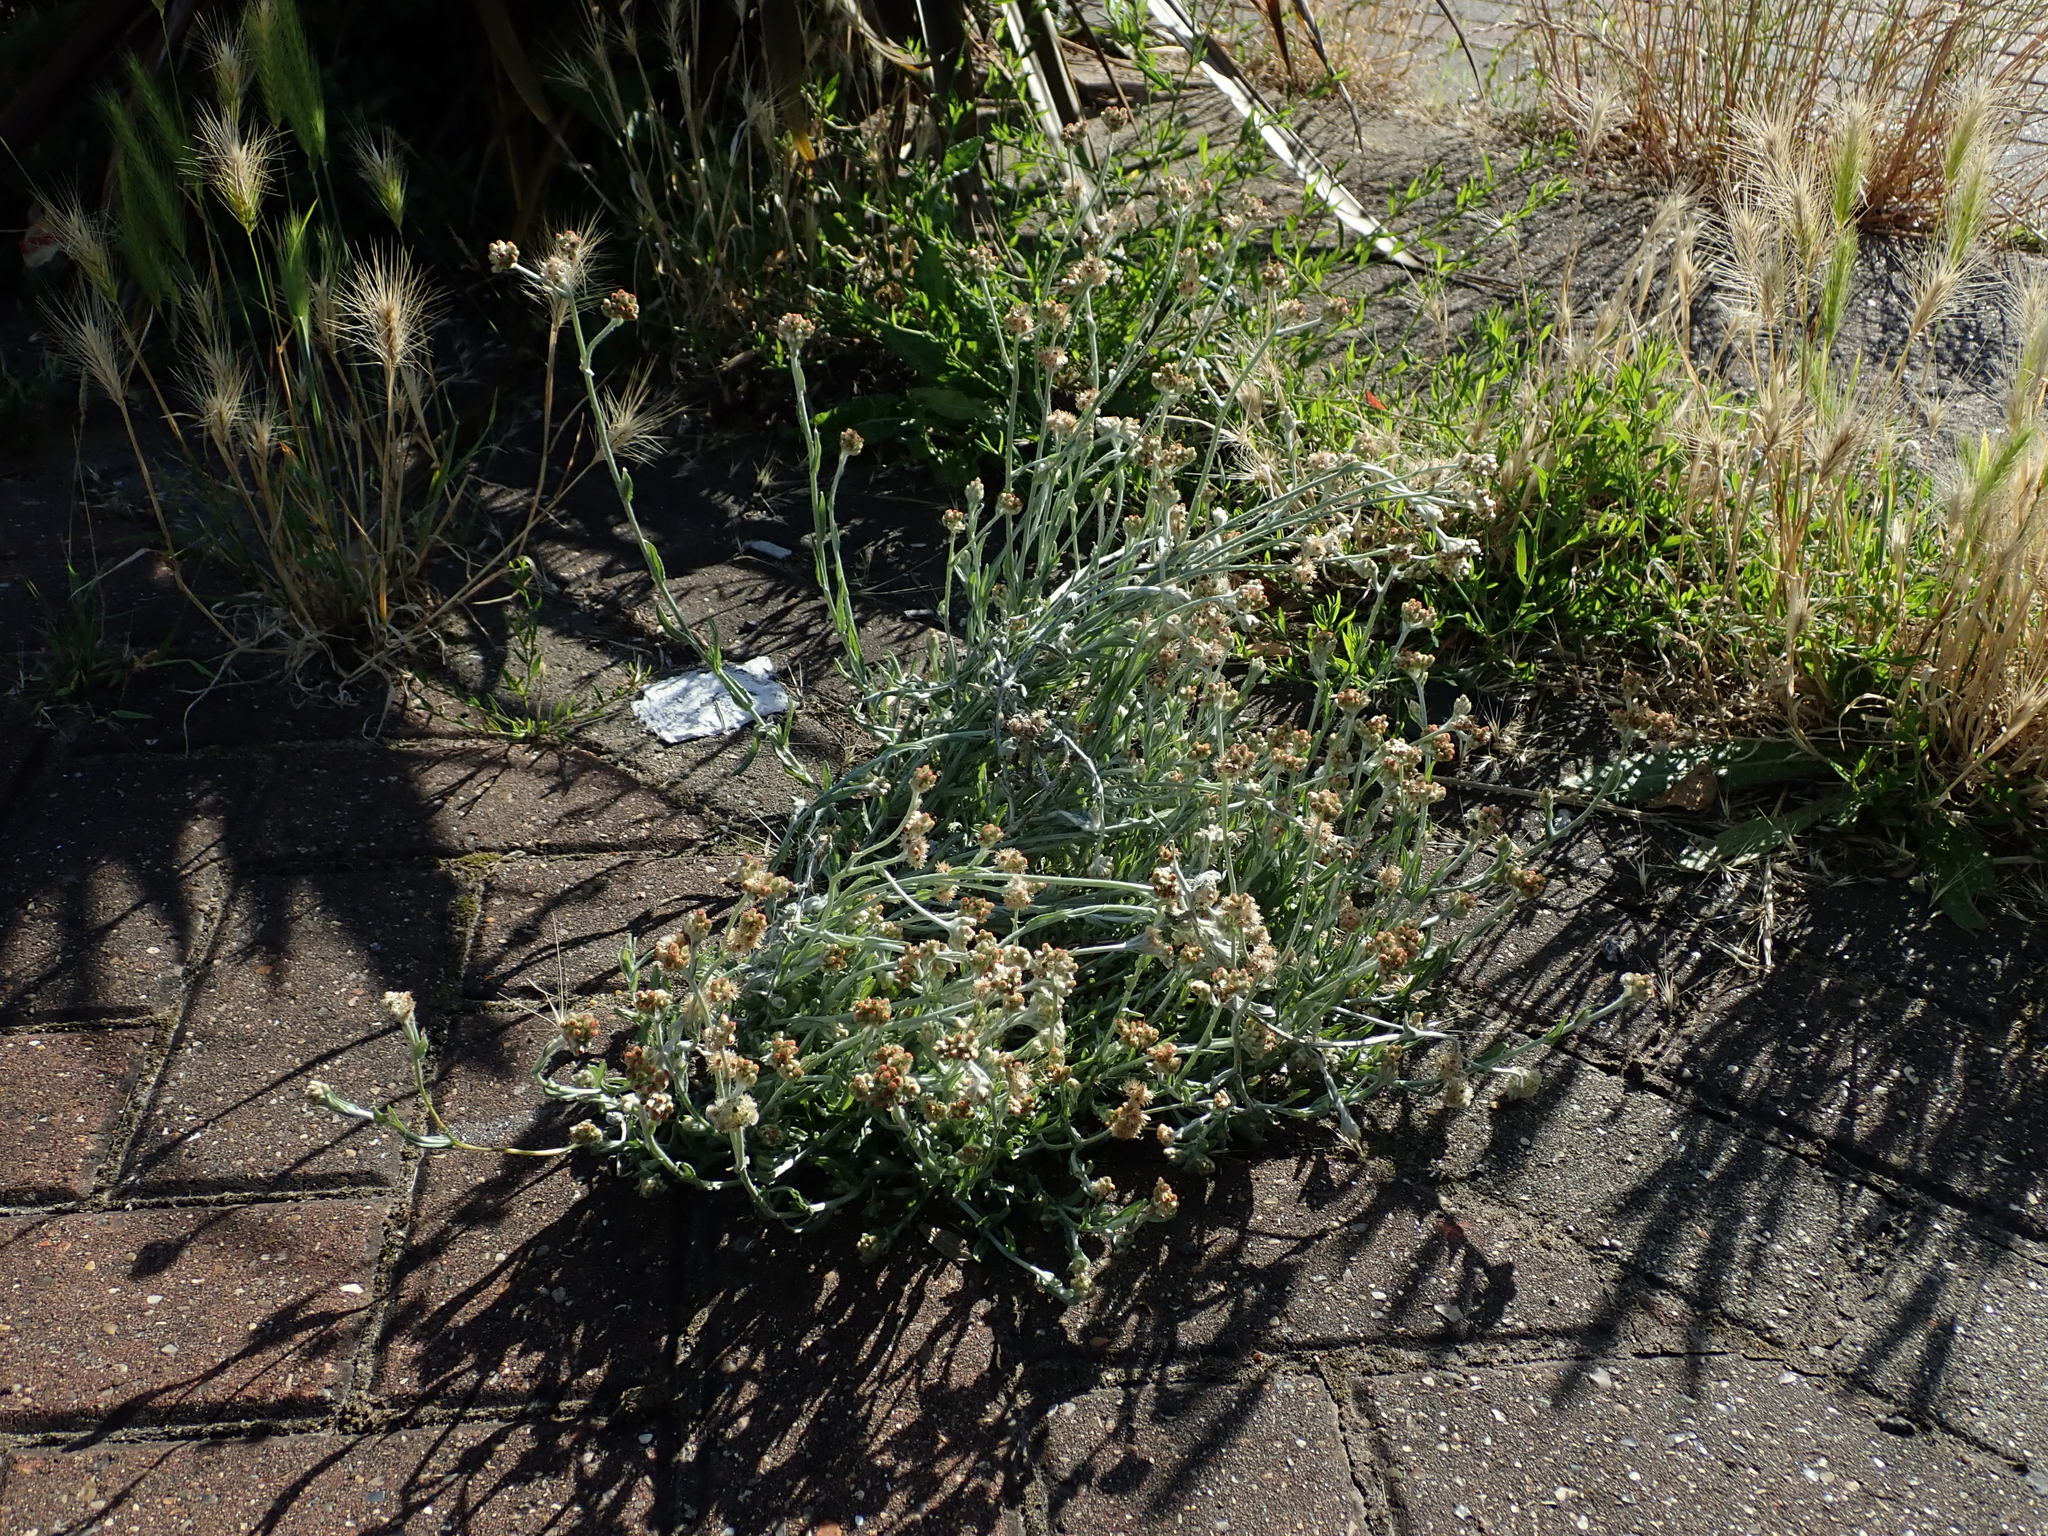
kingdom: Plantae
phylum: Tracheophyta
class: Magnoliopsida
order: Asterales
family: Asteraceae
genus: Helichrysum
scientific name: Helichrysum luteoalbum
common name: Daisy
